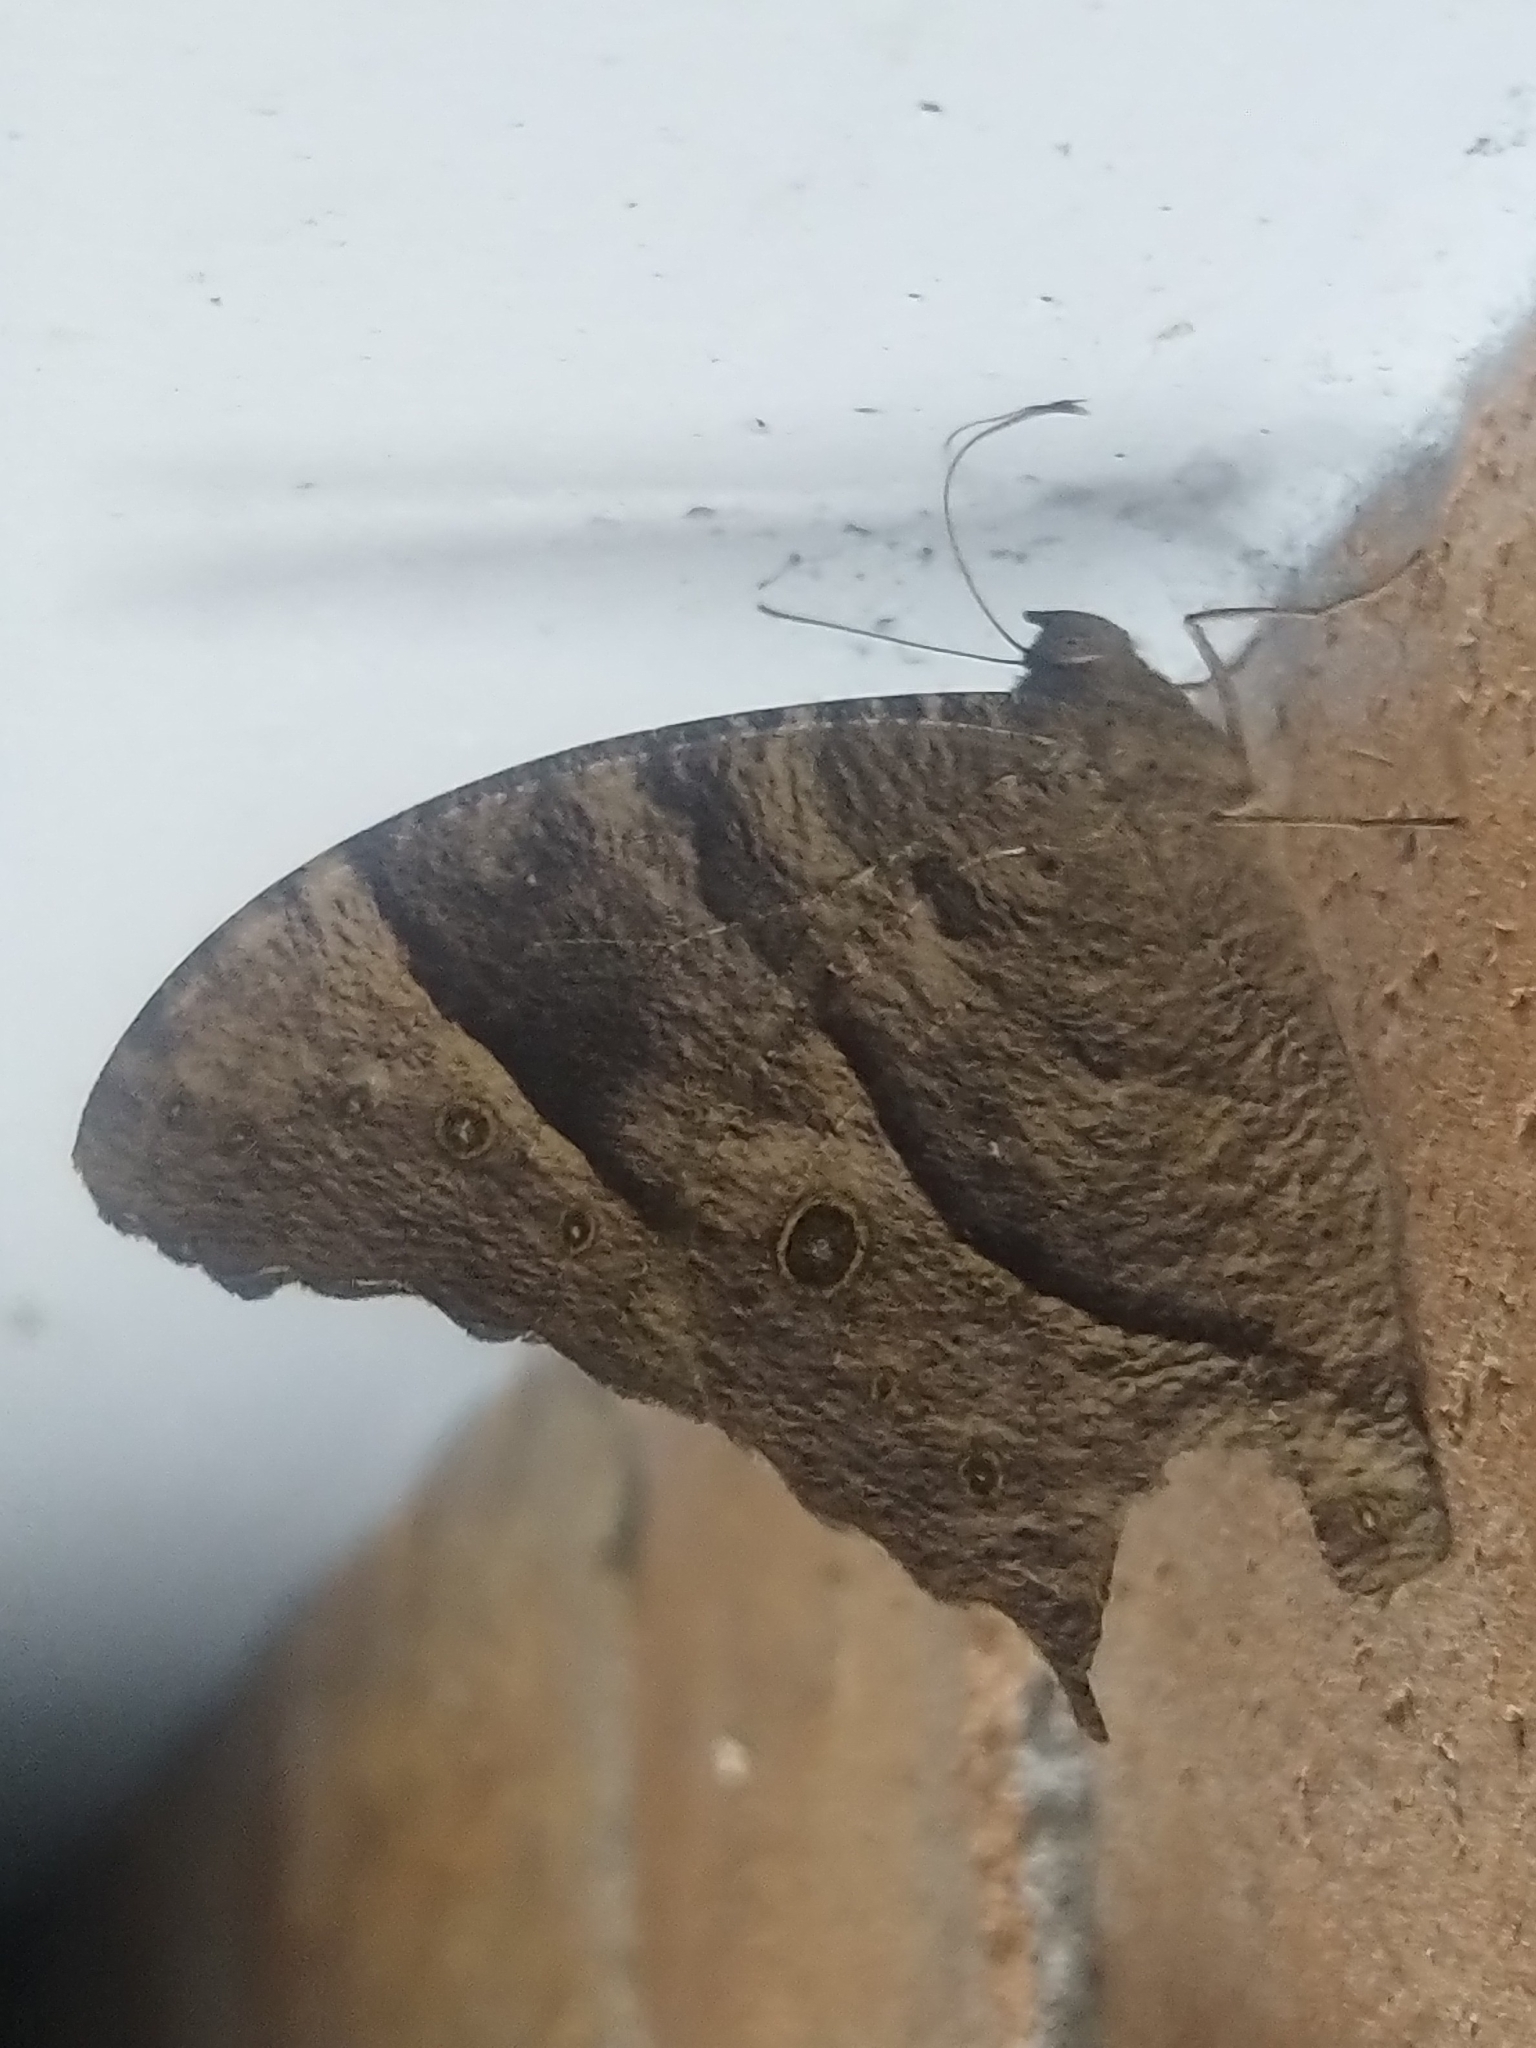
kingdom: Animalia
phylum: Arthropoda
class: Insecta
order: Lepidoptera
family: Nymphalidae
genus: Melanitis
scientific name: Melanitis leda
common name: Twilight brown
